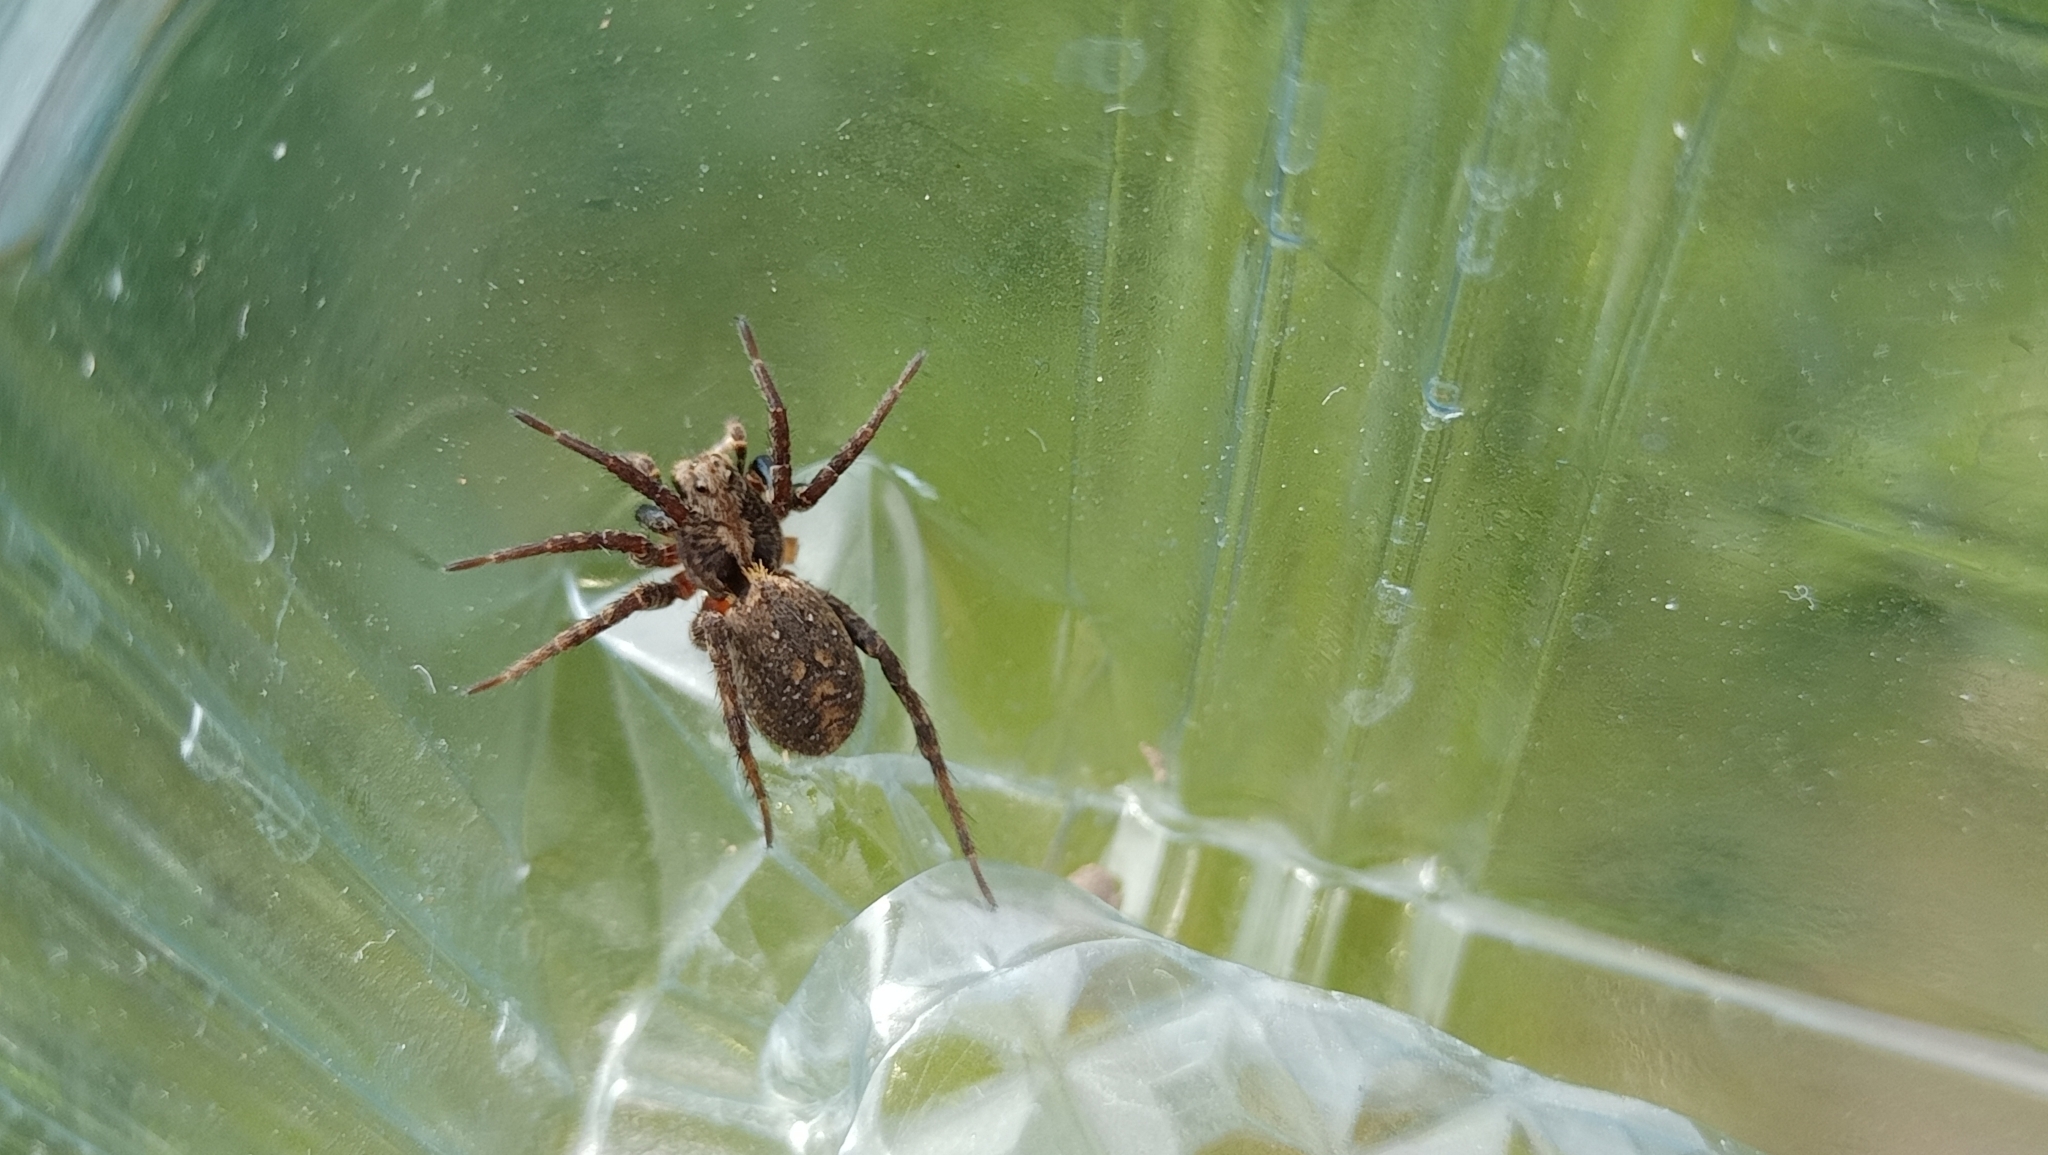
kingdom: Animalia
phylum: Arthropoda
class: Arachnida
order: Araneae
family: Lycosidae
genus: Alopecosa
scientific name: Alopecosa albofasciata
